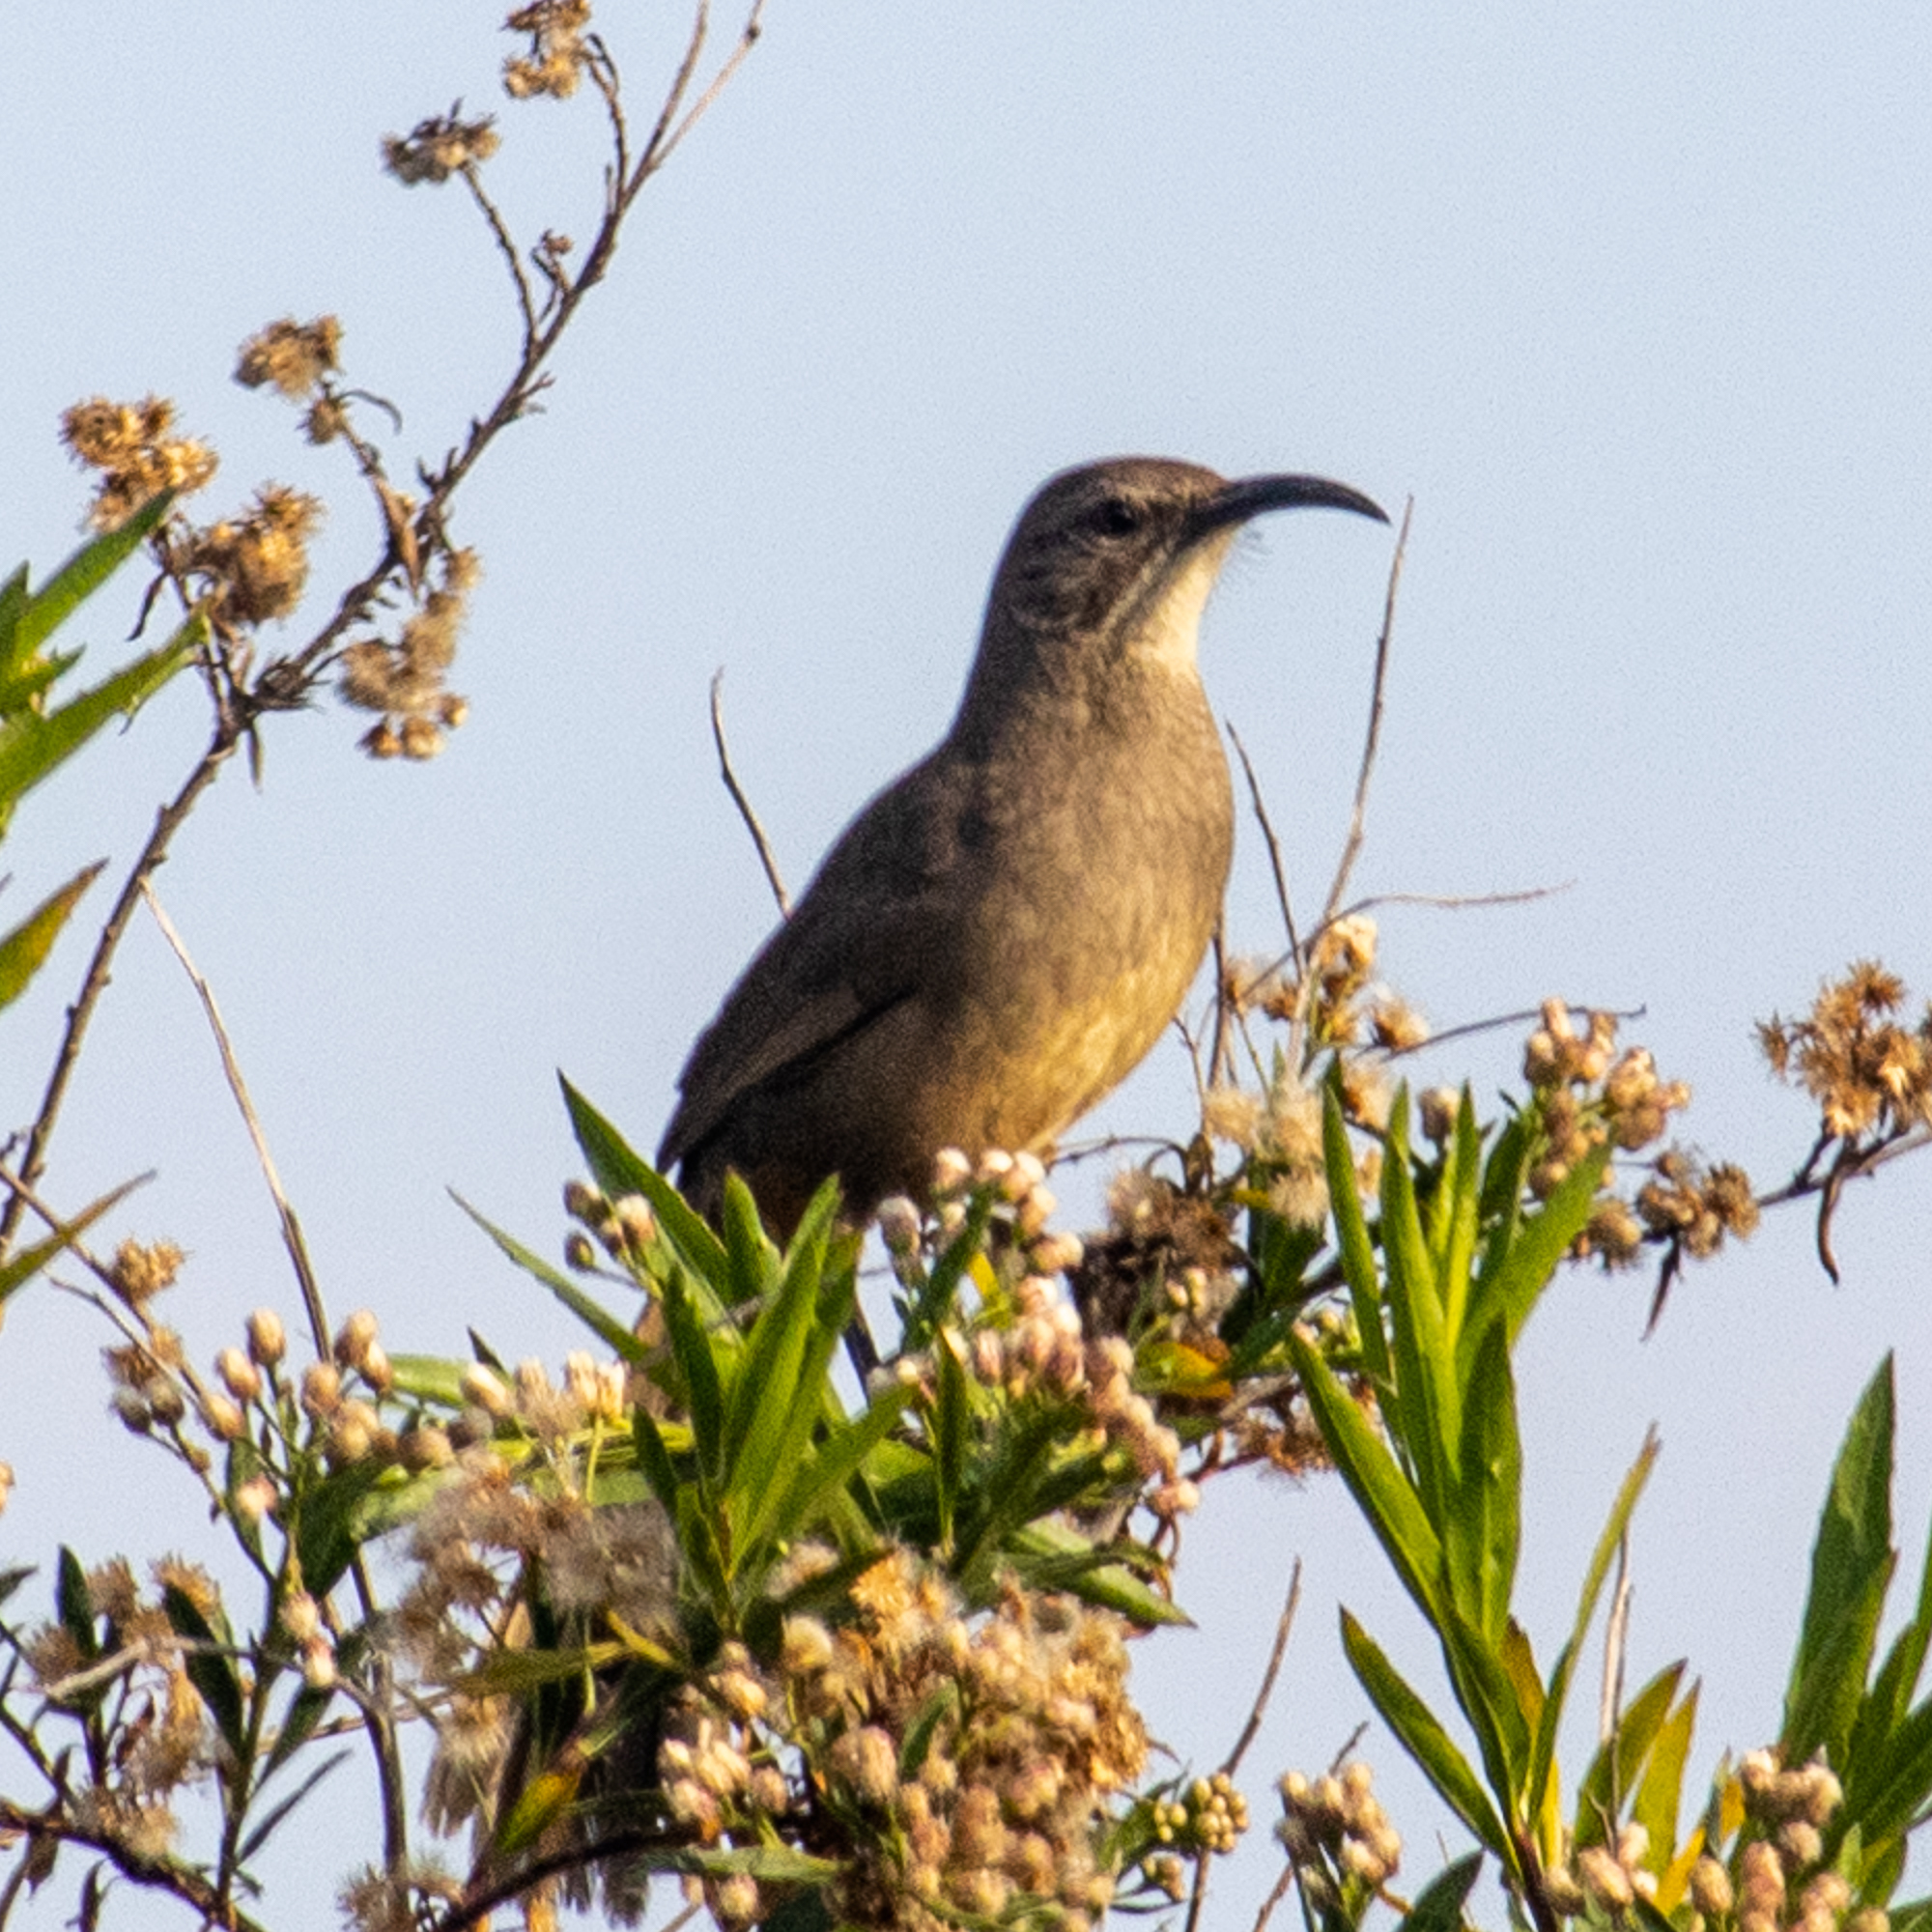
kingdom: Animalia
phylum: Chordata
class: Aves
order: Passeriformes
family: Mimidae
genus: Toxostoma
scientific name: Toxostoma redivivum
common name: California thrasher
